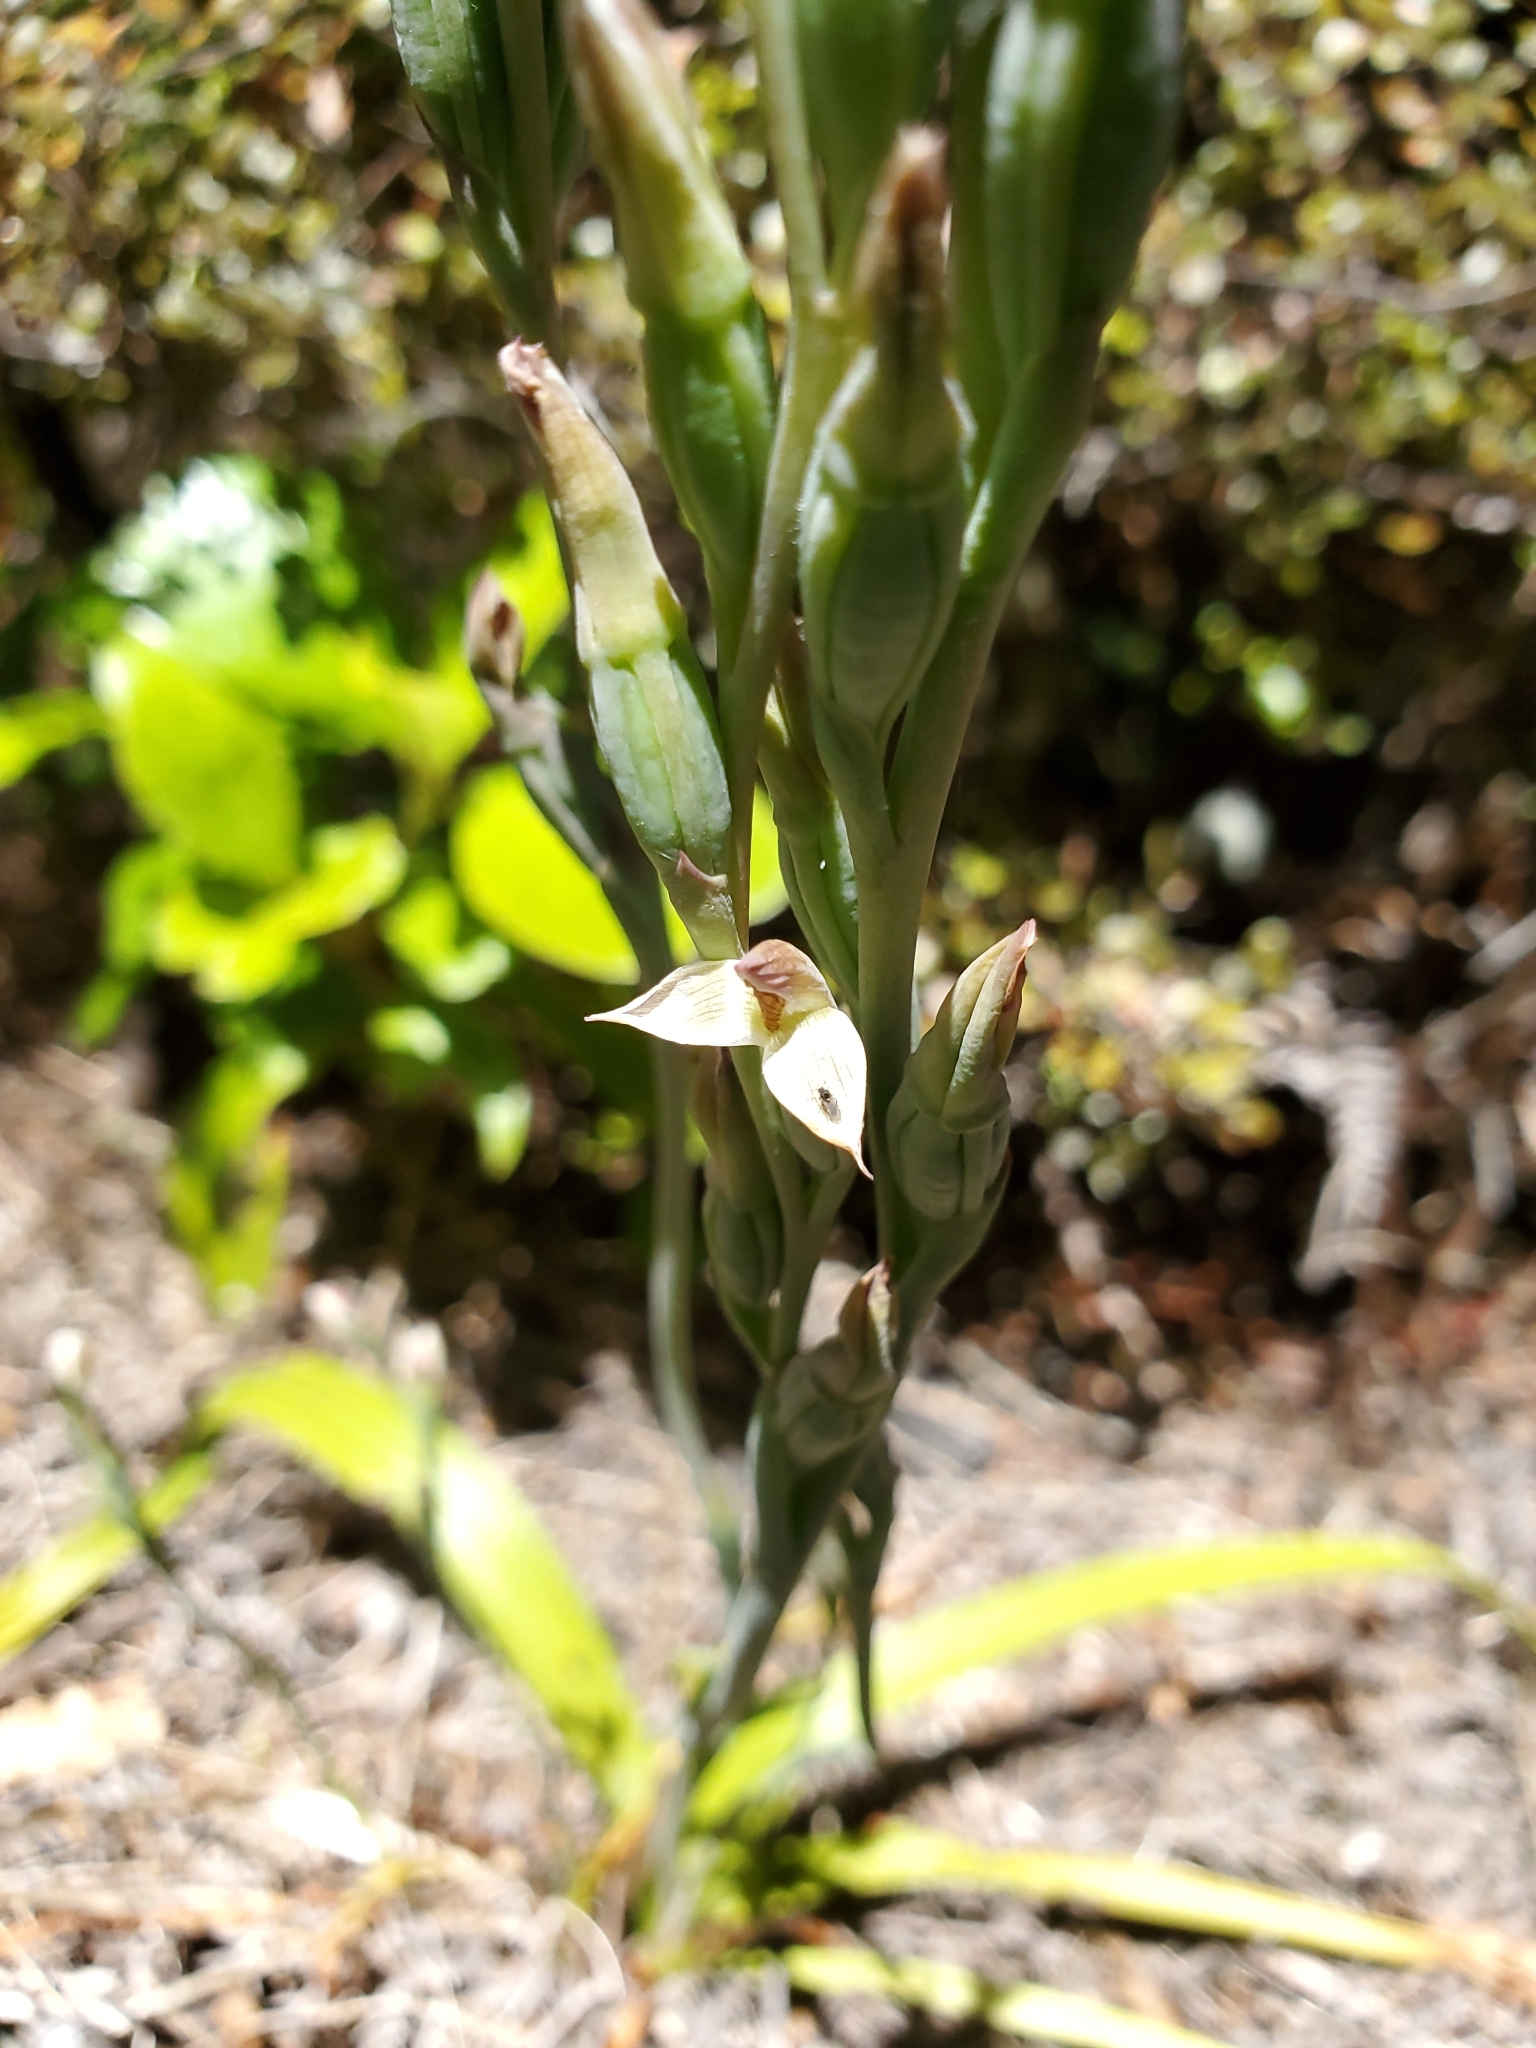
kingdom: Plantae
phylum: Tracheophyta
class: Liliopsida
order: Asparagales
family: Orchidaceae
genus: Thelymitra
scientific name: Thelymitra longifolia
